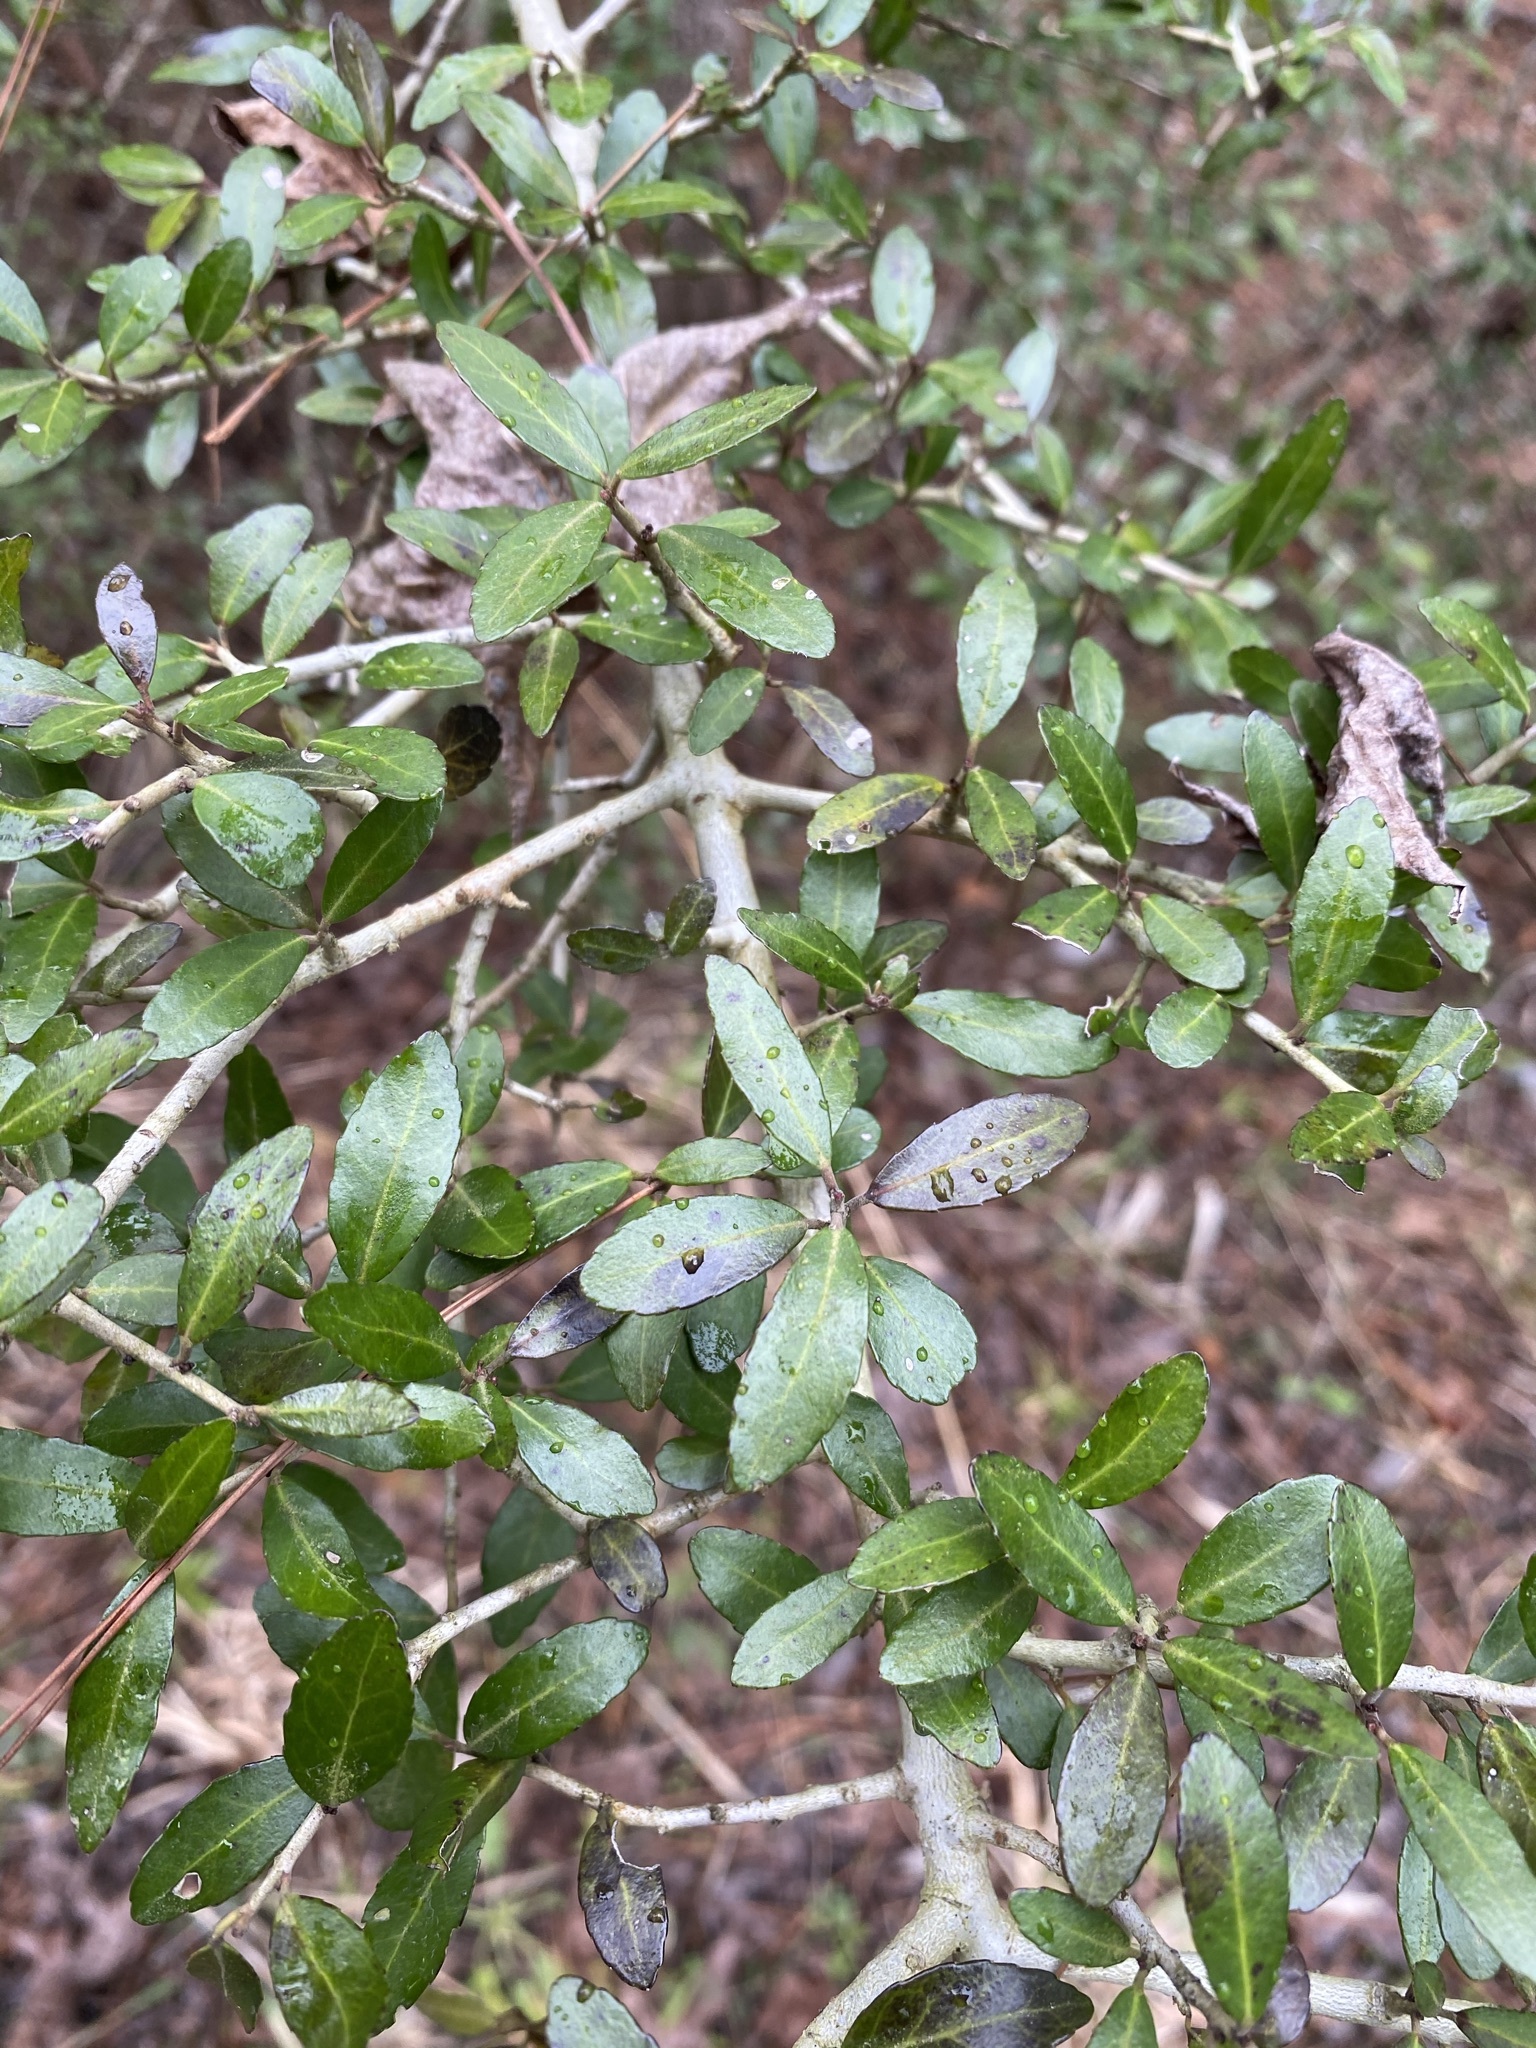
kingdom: Plantae
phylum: Tracheophyta
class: Magnoliopsida
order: Aquifoliales
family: Aquifoliaceae
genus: Ilex
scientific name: Ilex vomitoria
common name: Yaupon holly
